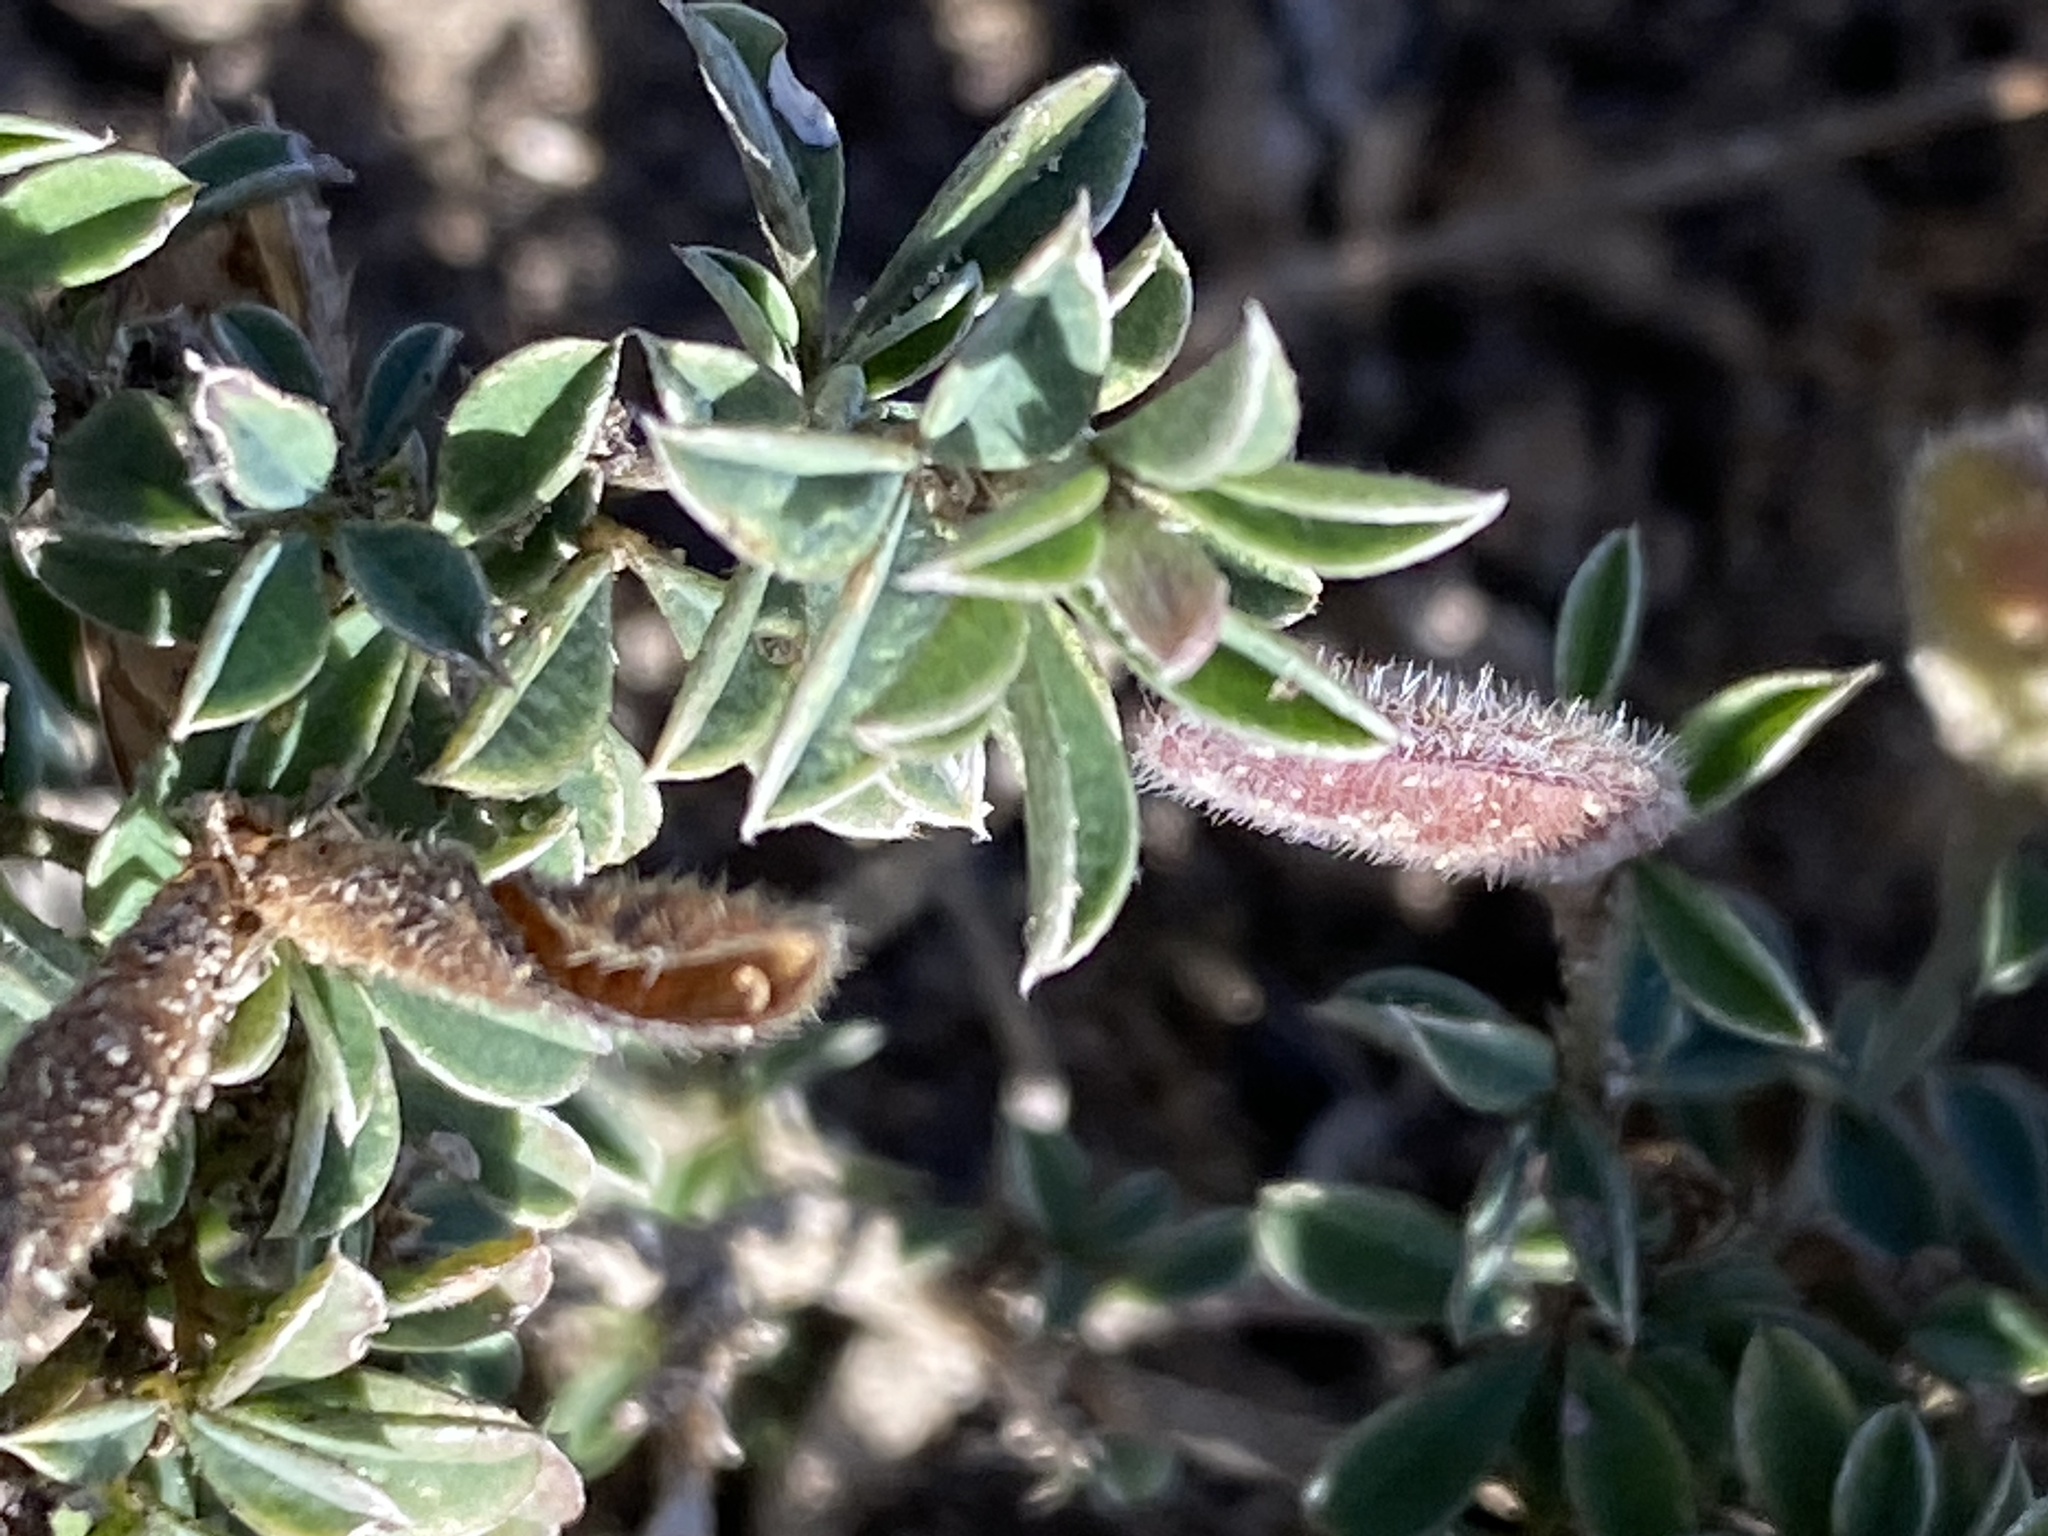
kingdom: Plantae
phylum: Tracheophyta
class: Magnoliopsida
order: Fabales
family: Fabaceae
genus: Argyrolobium
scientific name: Argyrolobium harmsianum
